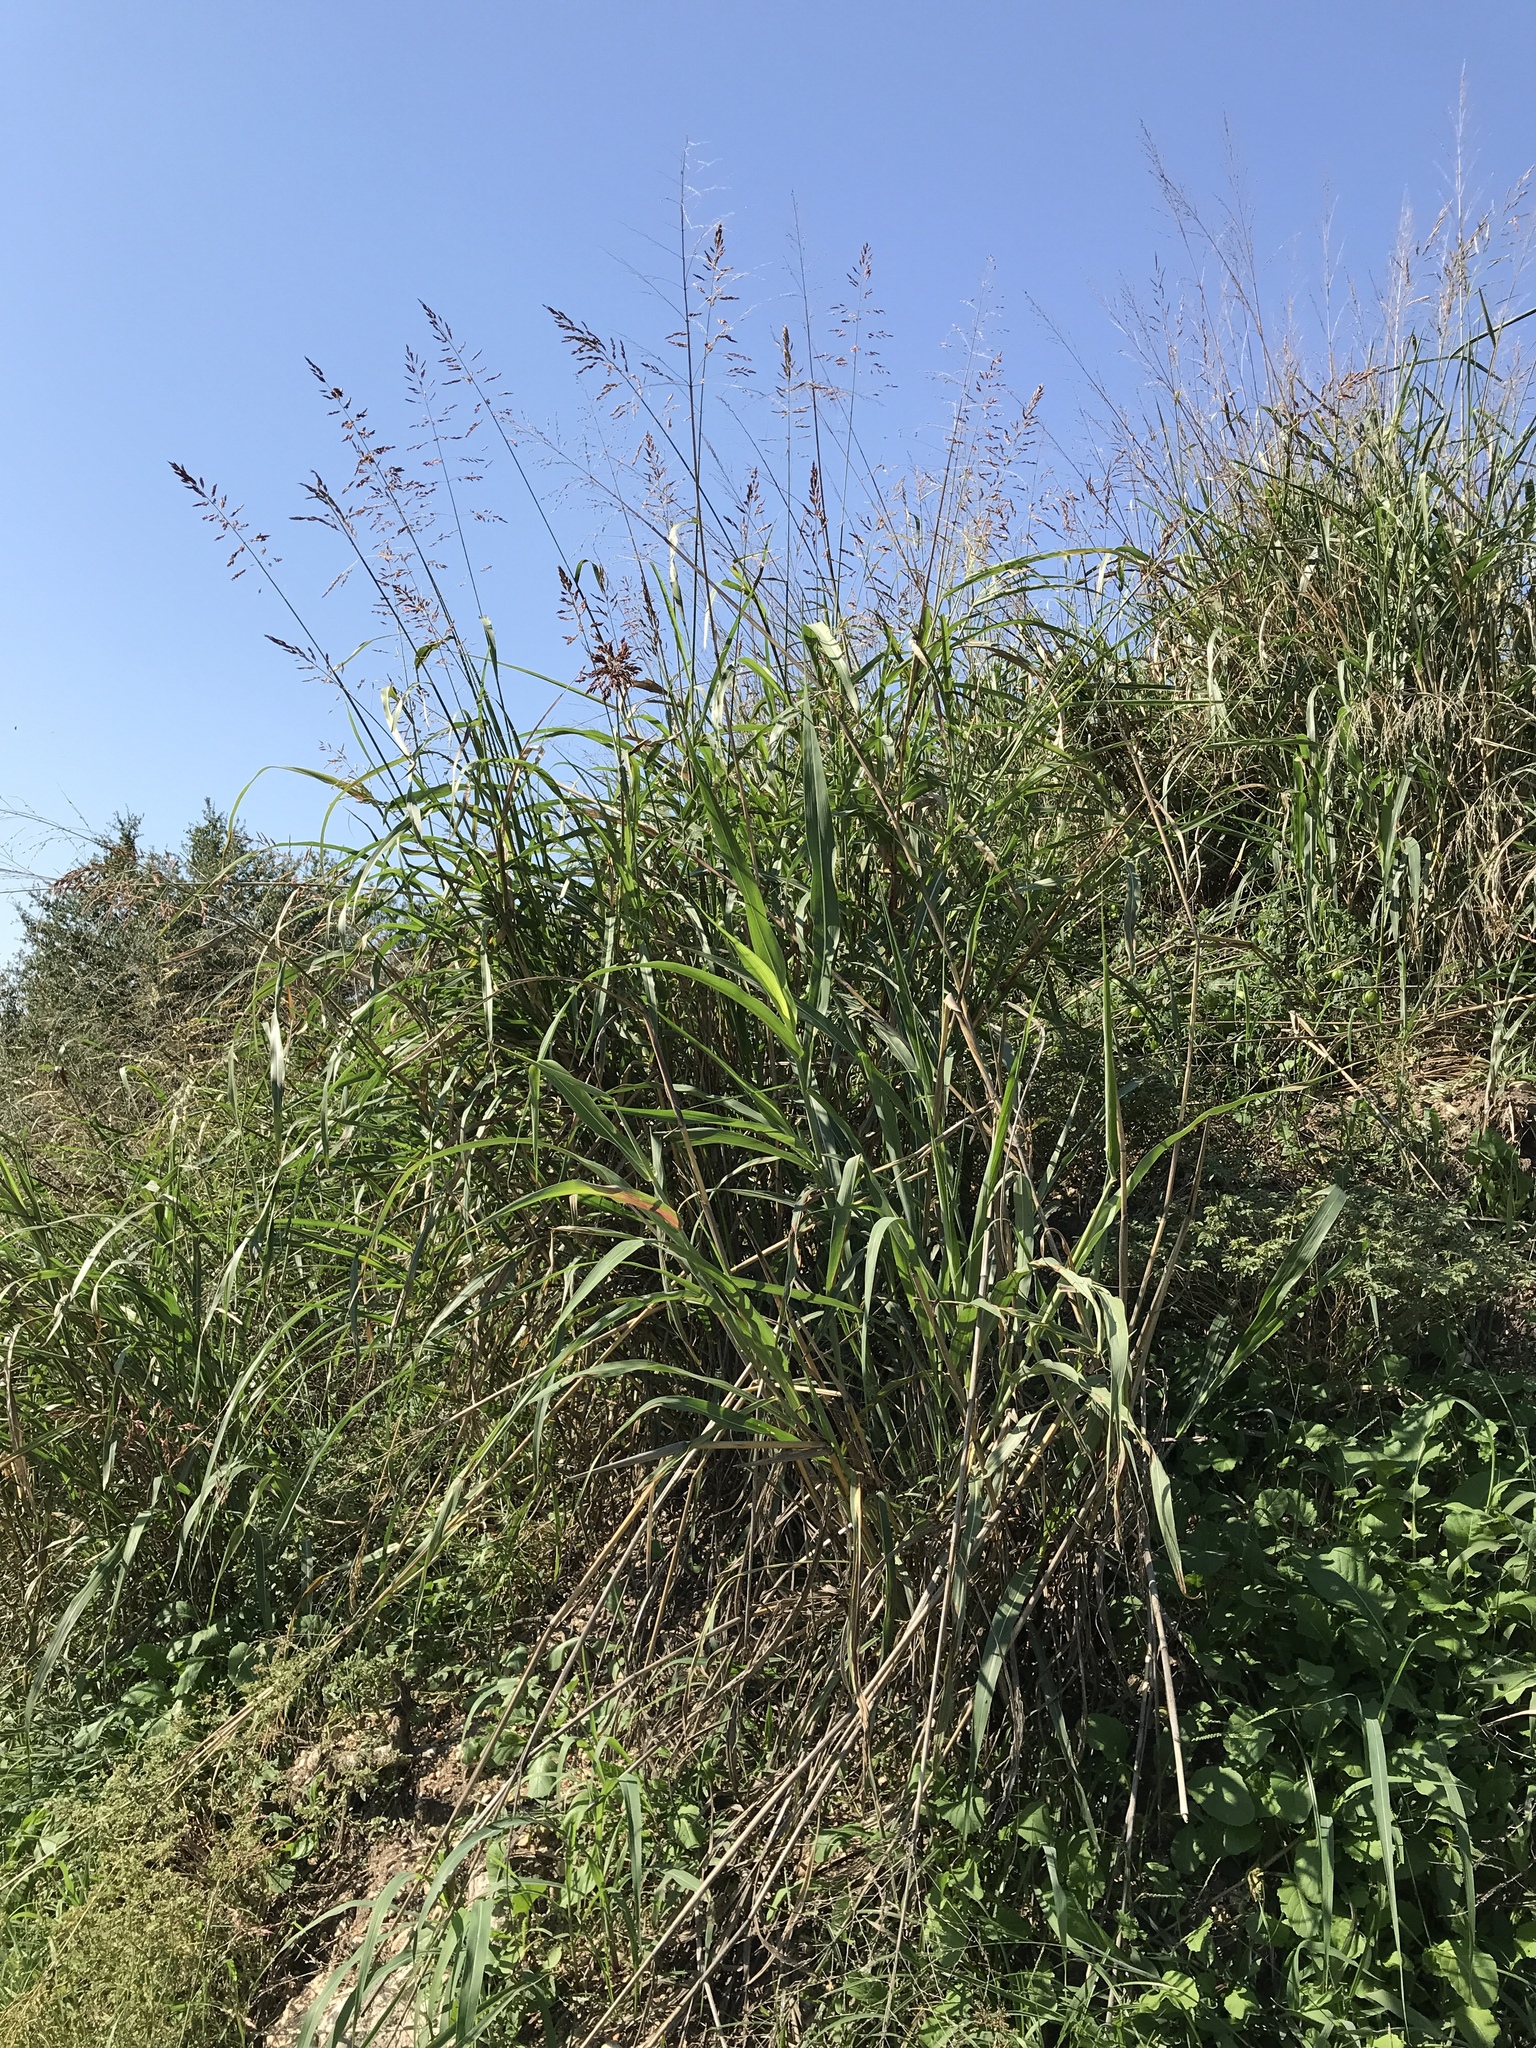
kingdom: Plantae
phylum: Tracheophyta
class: Liliopsida
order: Poales
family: Poaceae
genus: Sorghum
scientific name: Sorghum halepense
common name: Johnson-grass
